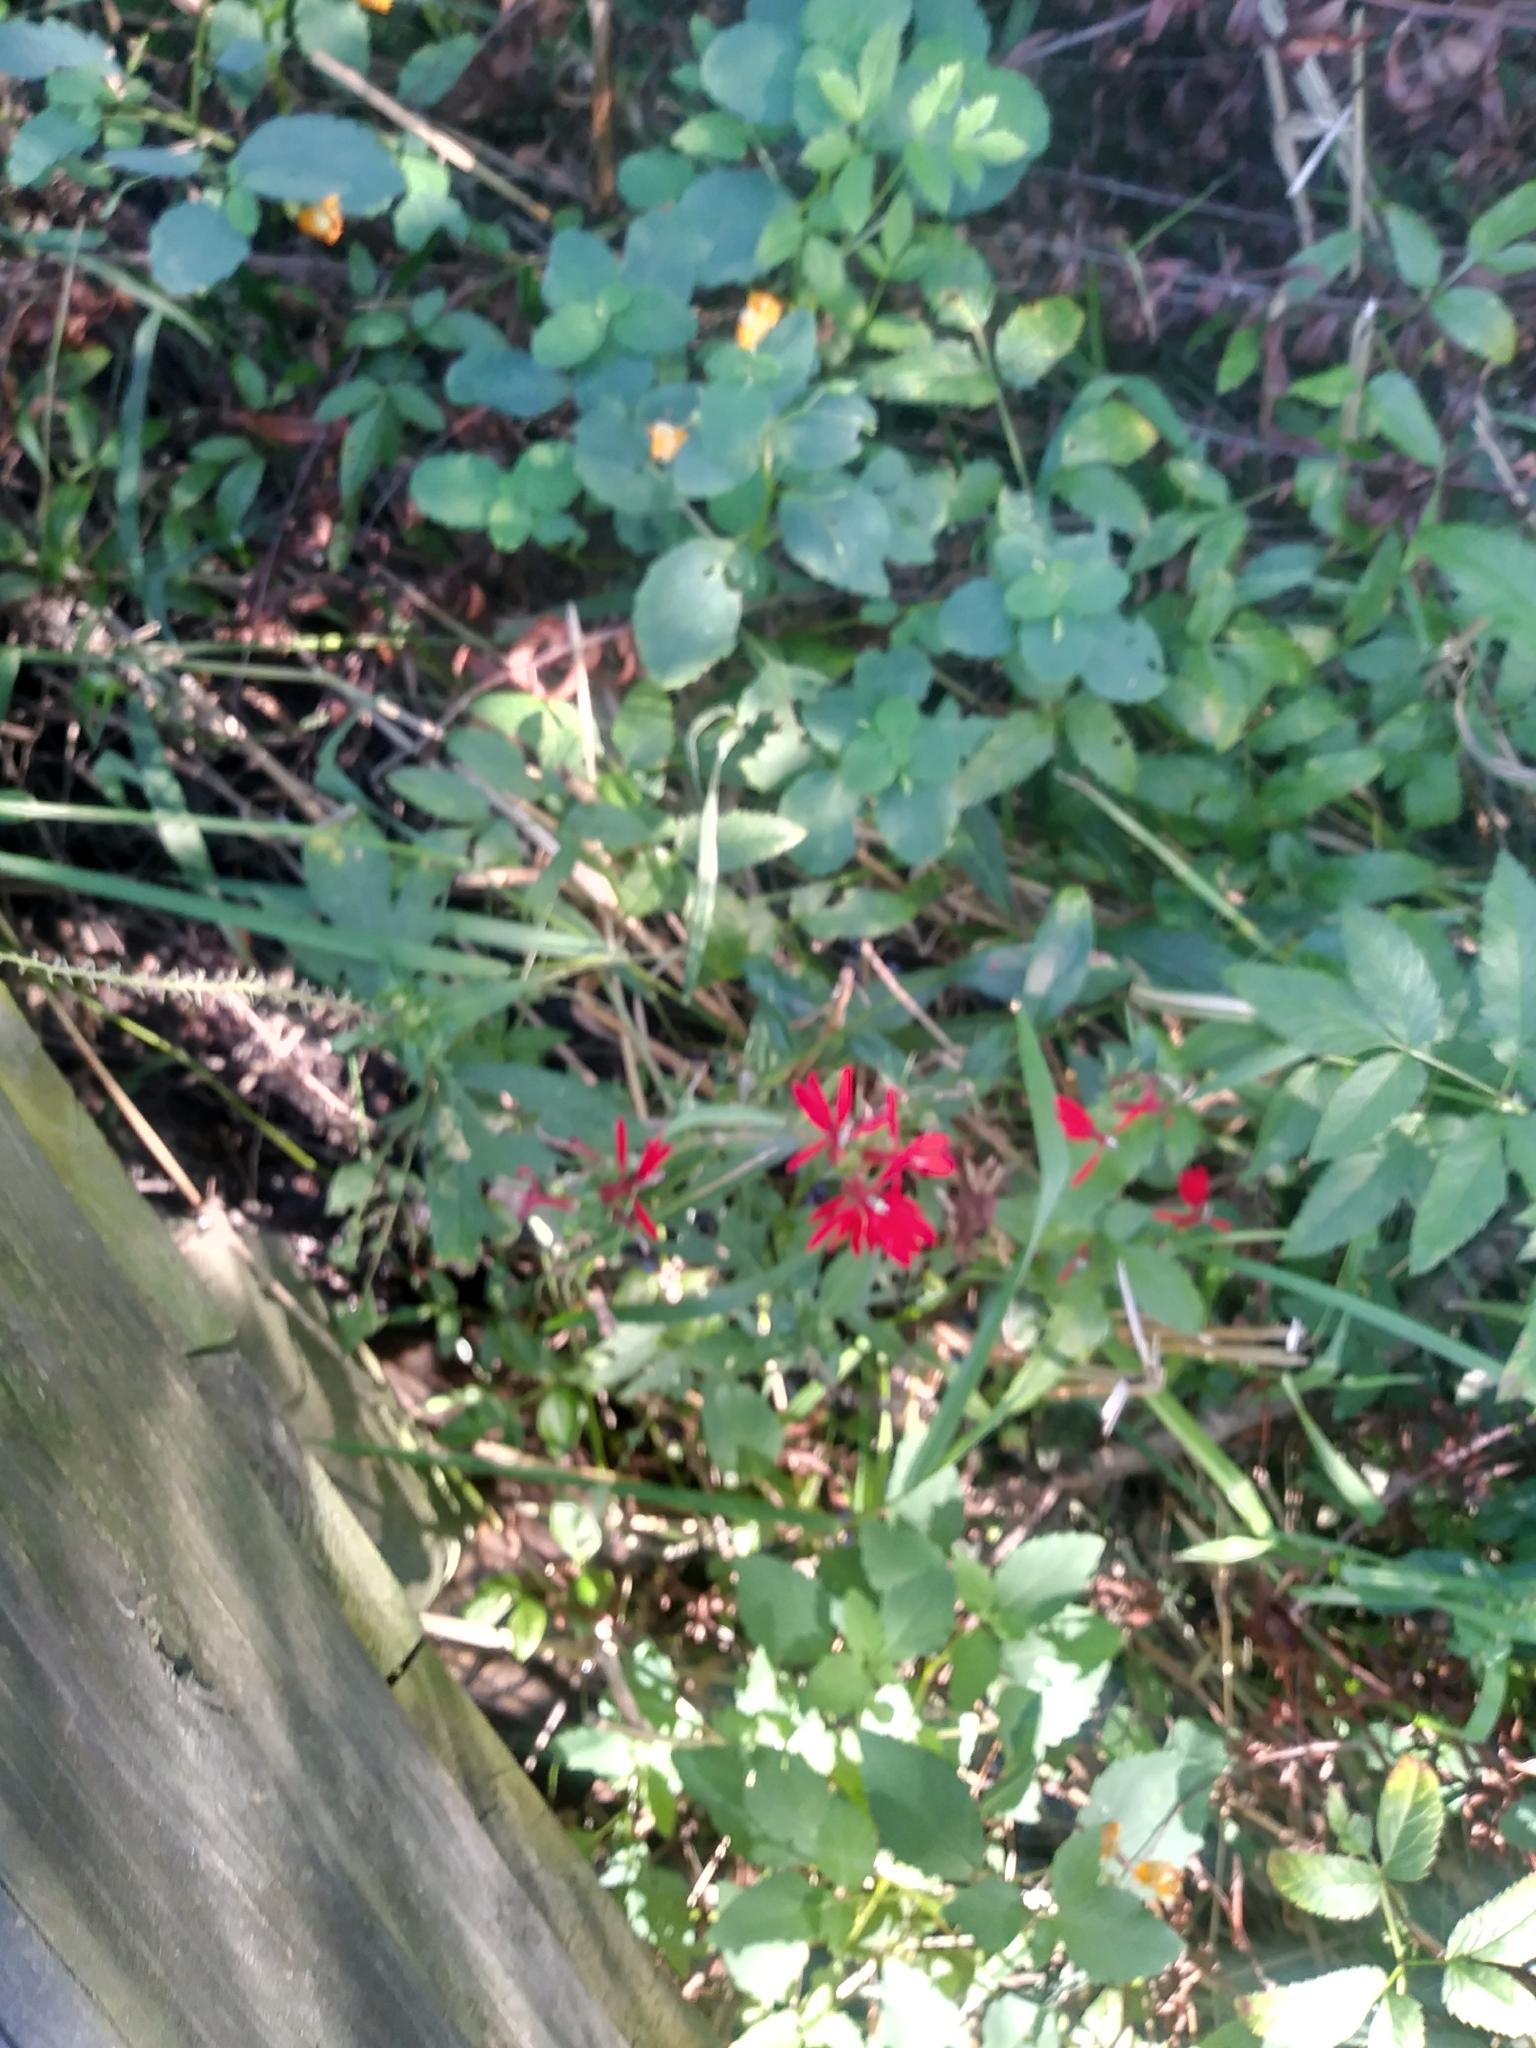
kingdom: Plantae
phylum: Tracheophyta
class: Magnoliopsida
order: Asterales
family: Campanulaceae
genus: Lobelia
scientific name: Lobelia cardinalis
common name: Cardinal flower
